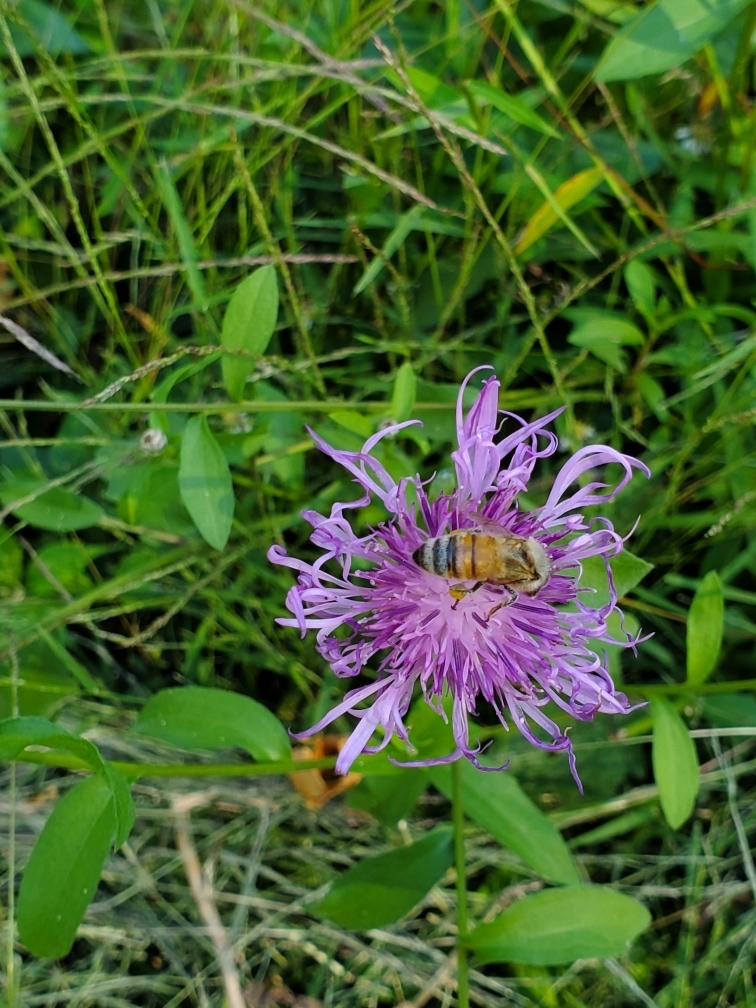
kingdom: Animalia
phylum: Arthropoda
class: Insecta
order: Hymenoptera
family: Apidae
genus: Apis
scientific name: Apis mellifera
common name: Honey bee
